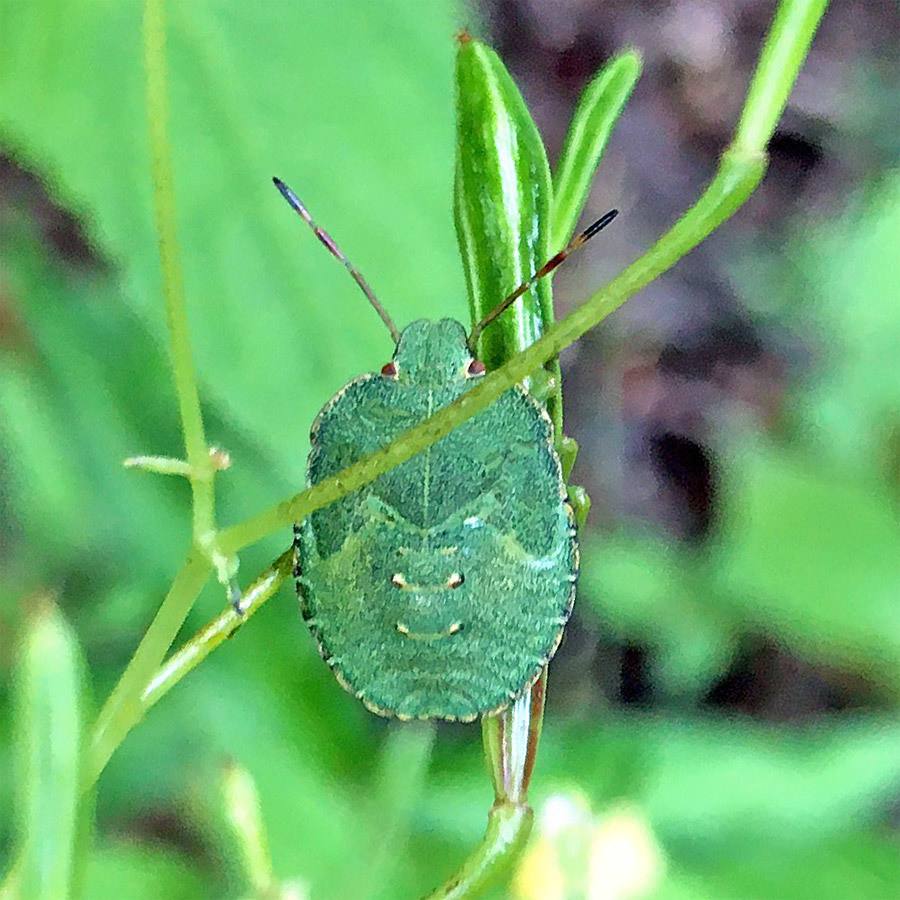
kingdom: Animalia
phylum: Arthropoda
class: Insecta
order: Hemiptera
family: Pentatomidae
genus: Palomena
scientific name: Palomena prasina
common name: Green shieldbug
